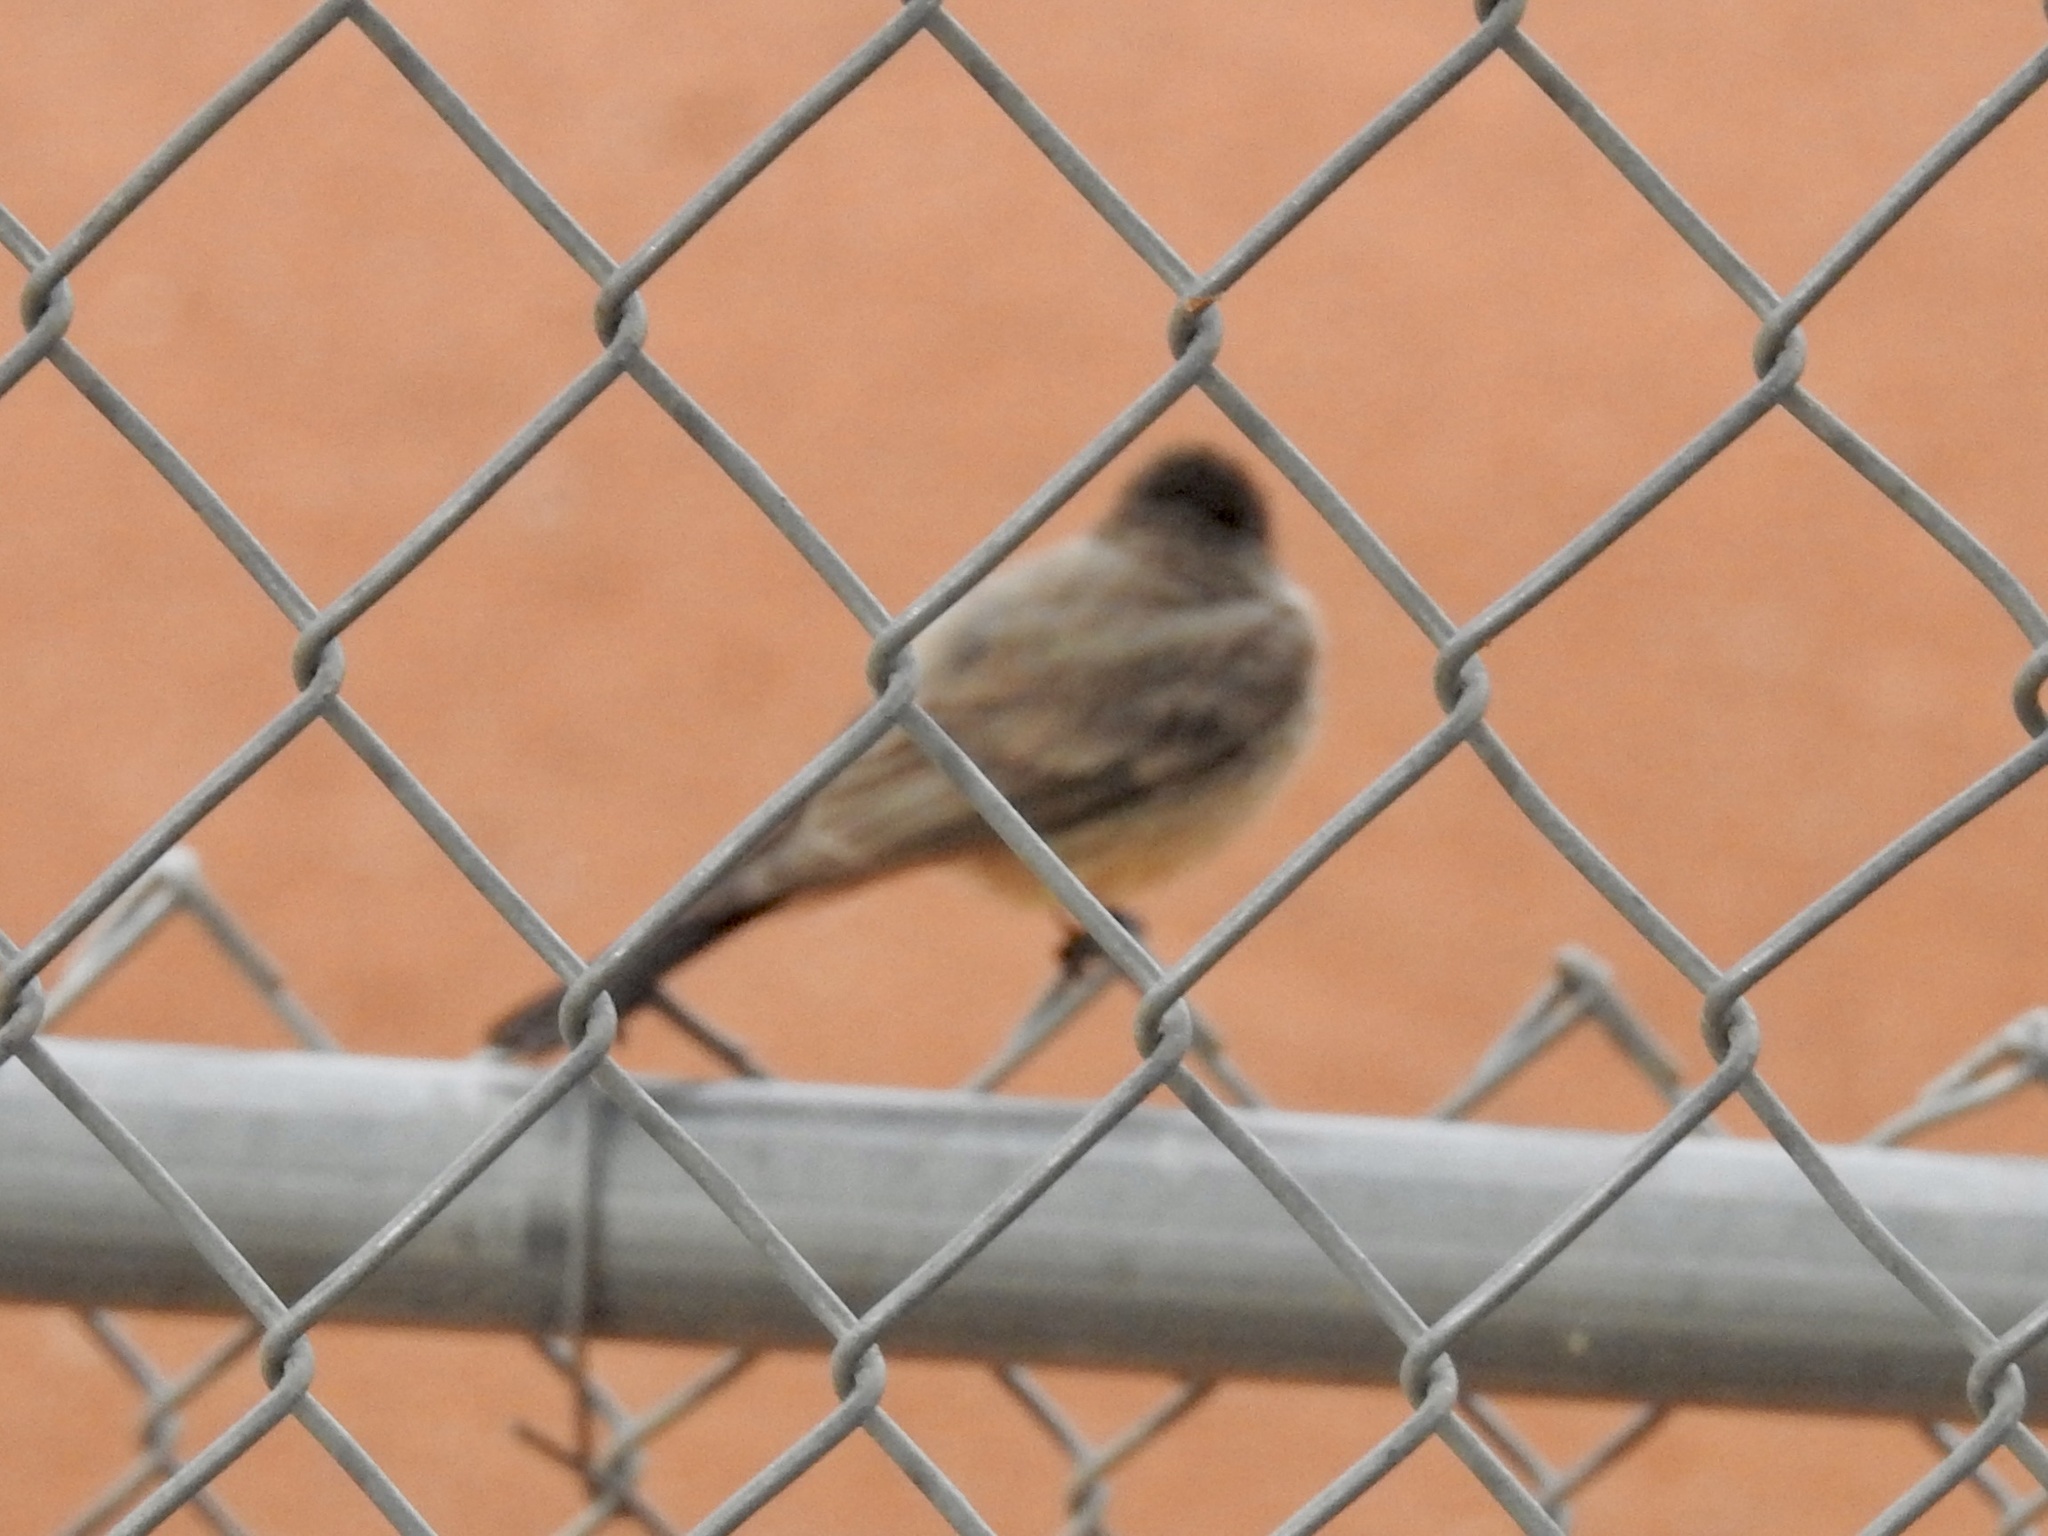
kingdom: Animalia
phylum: Chordata
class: Aves
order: Passeriformes
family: Tyrannidae
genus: Sayornis
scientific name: Sayornis saya
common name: Say's phoebe
